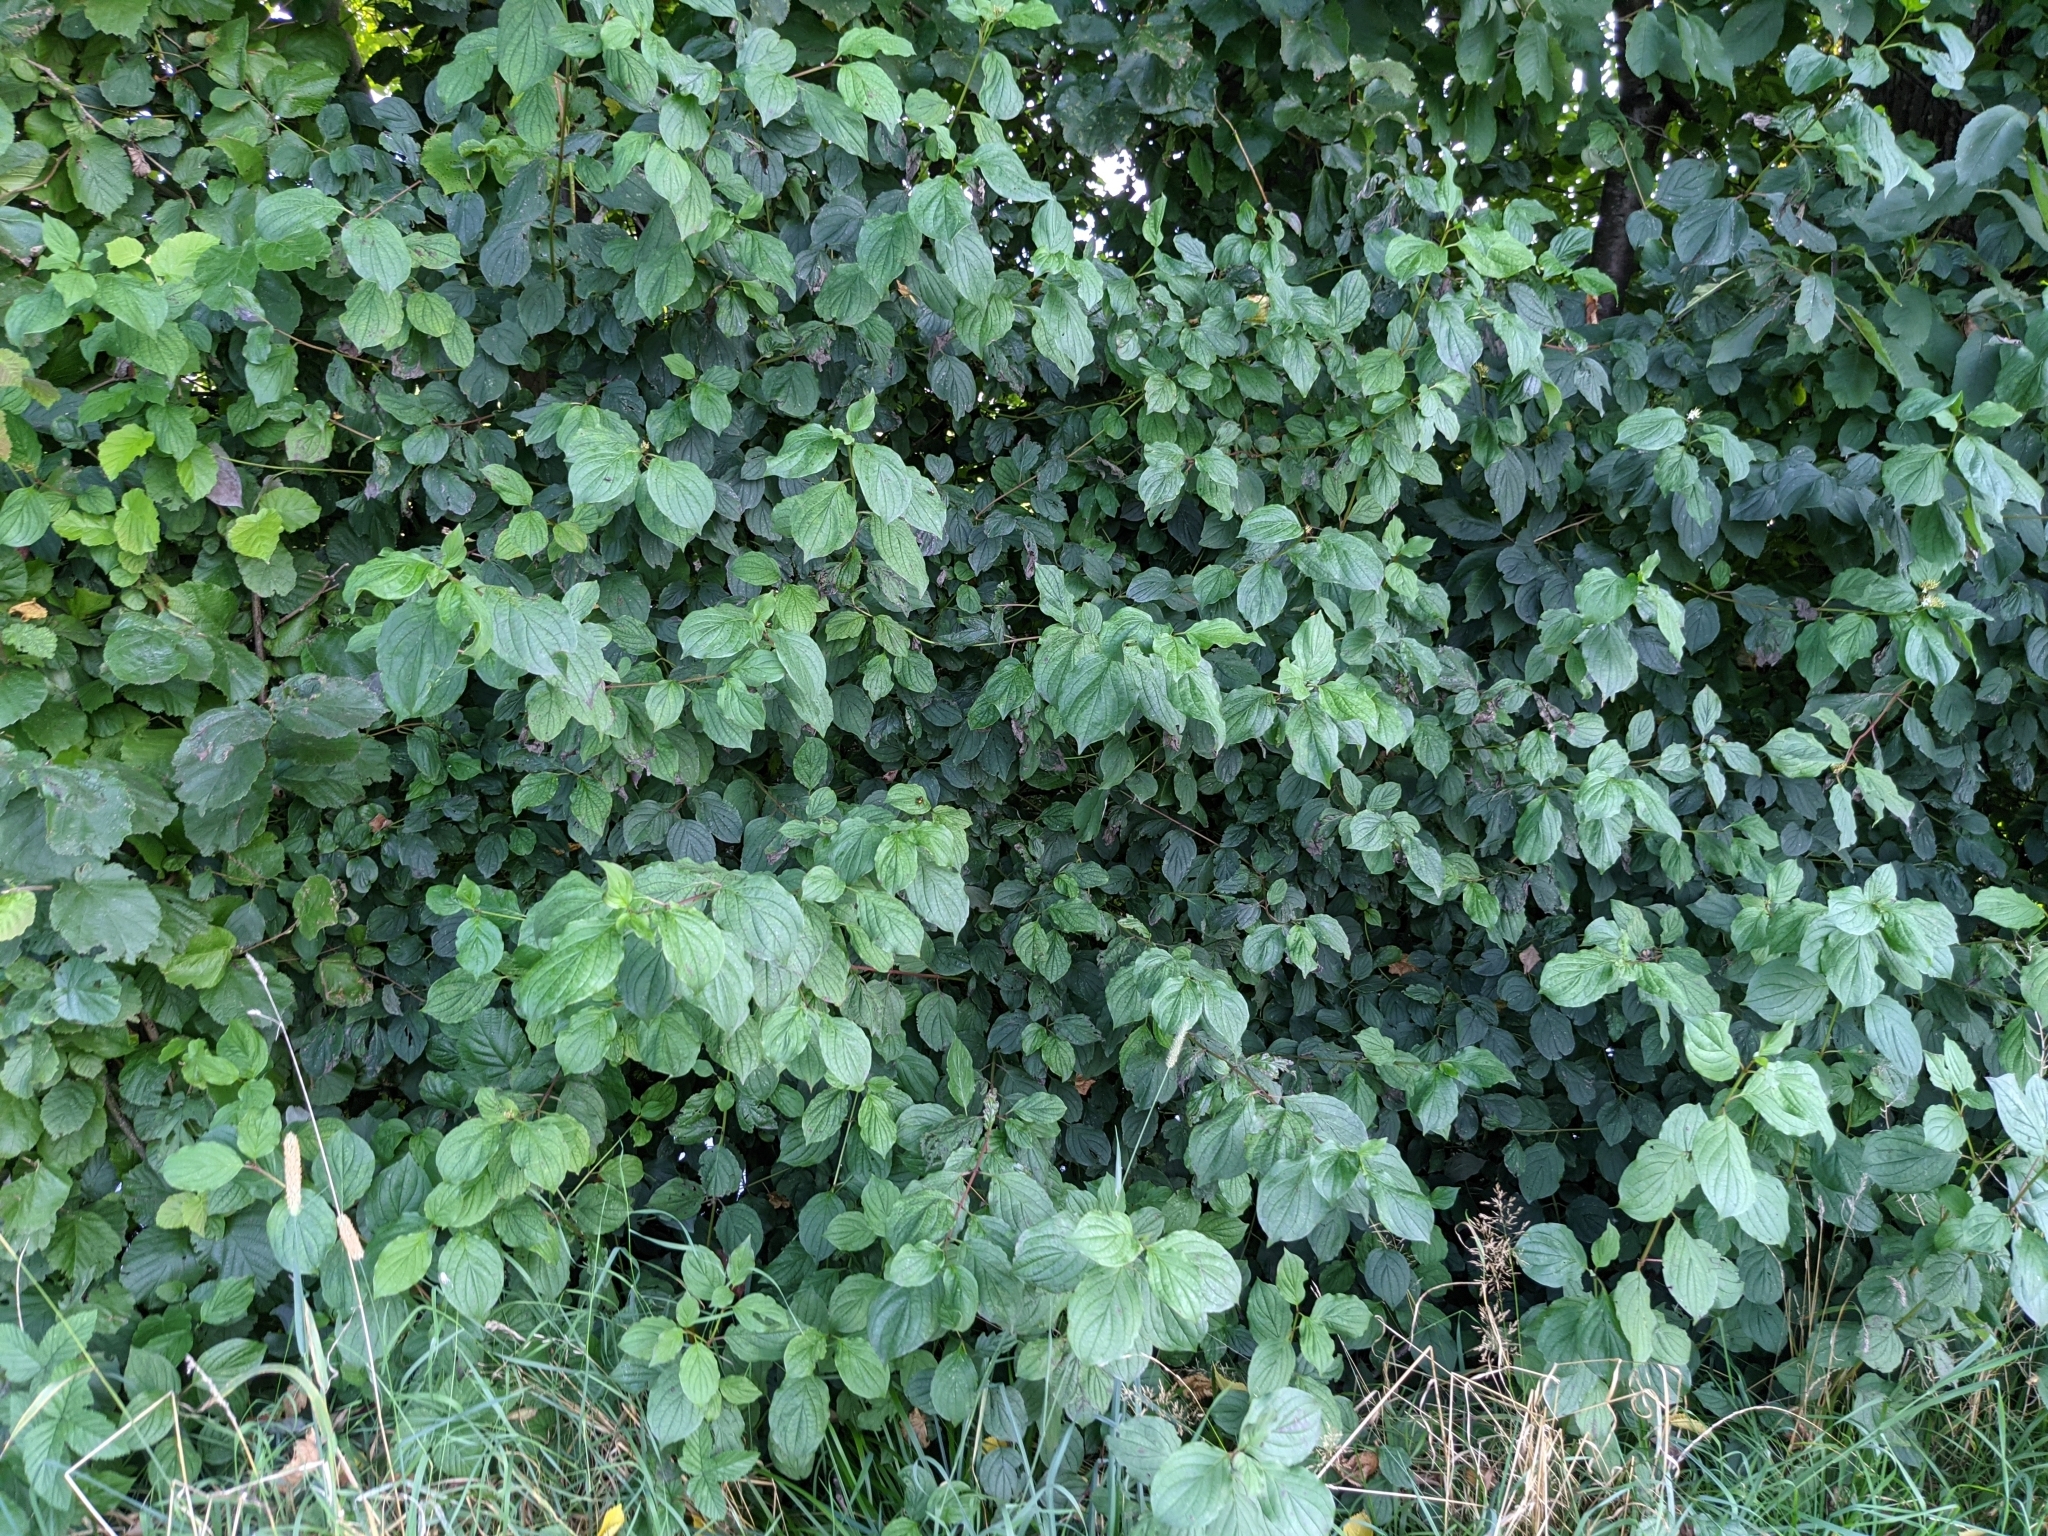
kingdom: Plantae
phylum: Tracheophyta
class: Magnoliopsida
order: Cornales
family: Cornaceae
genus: Cornus
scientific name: Cornus sanguinea
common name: Dogwood
